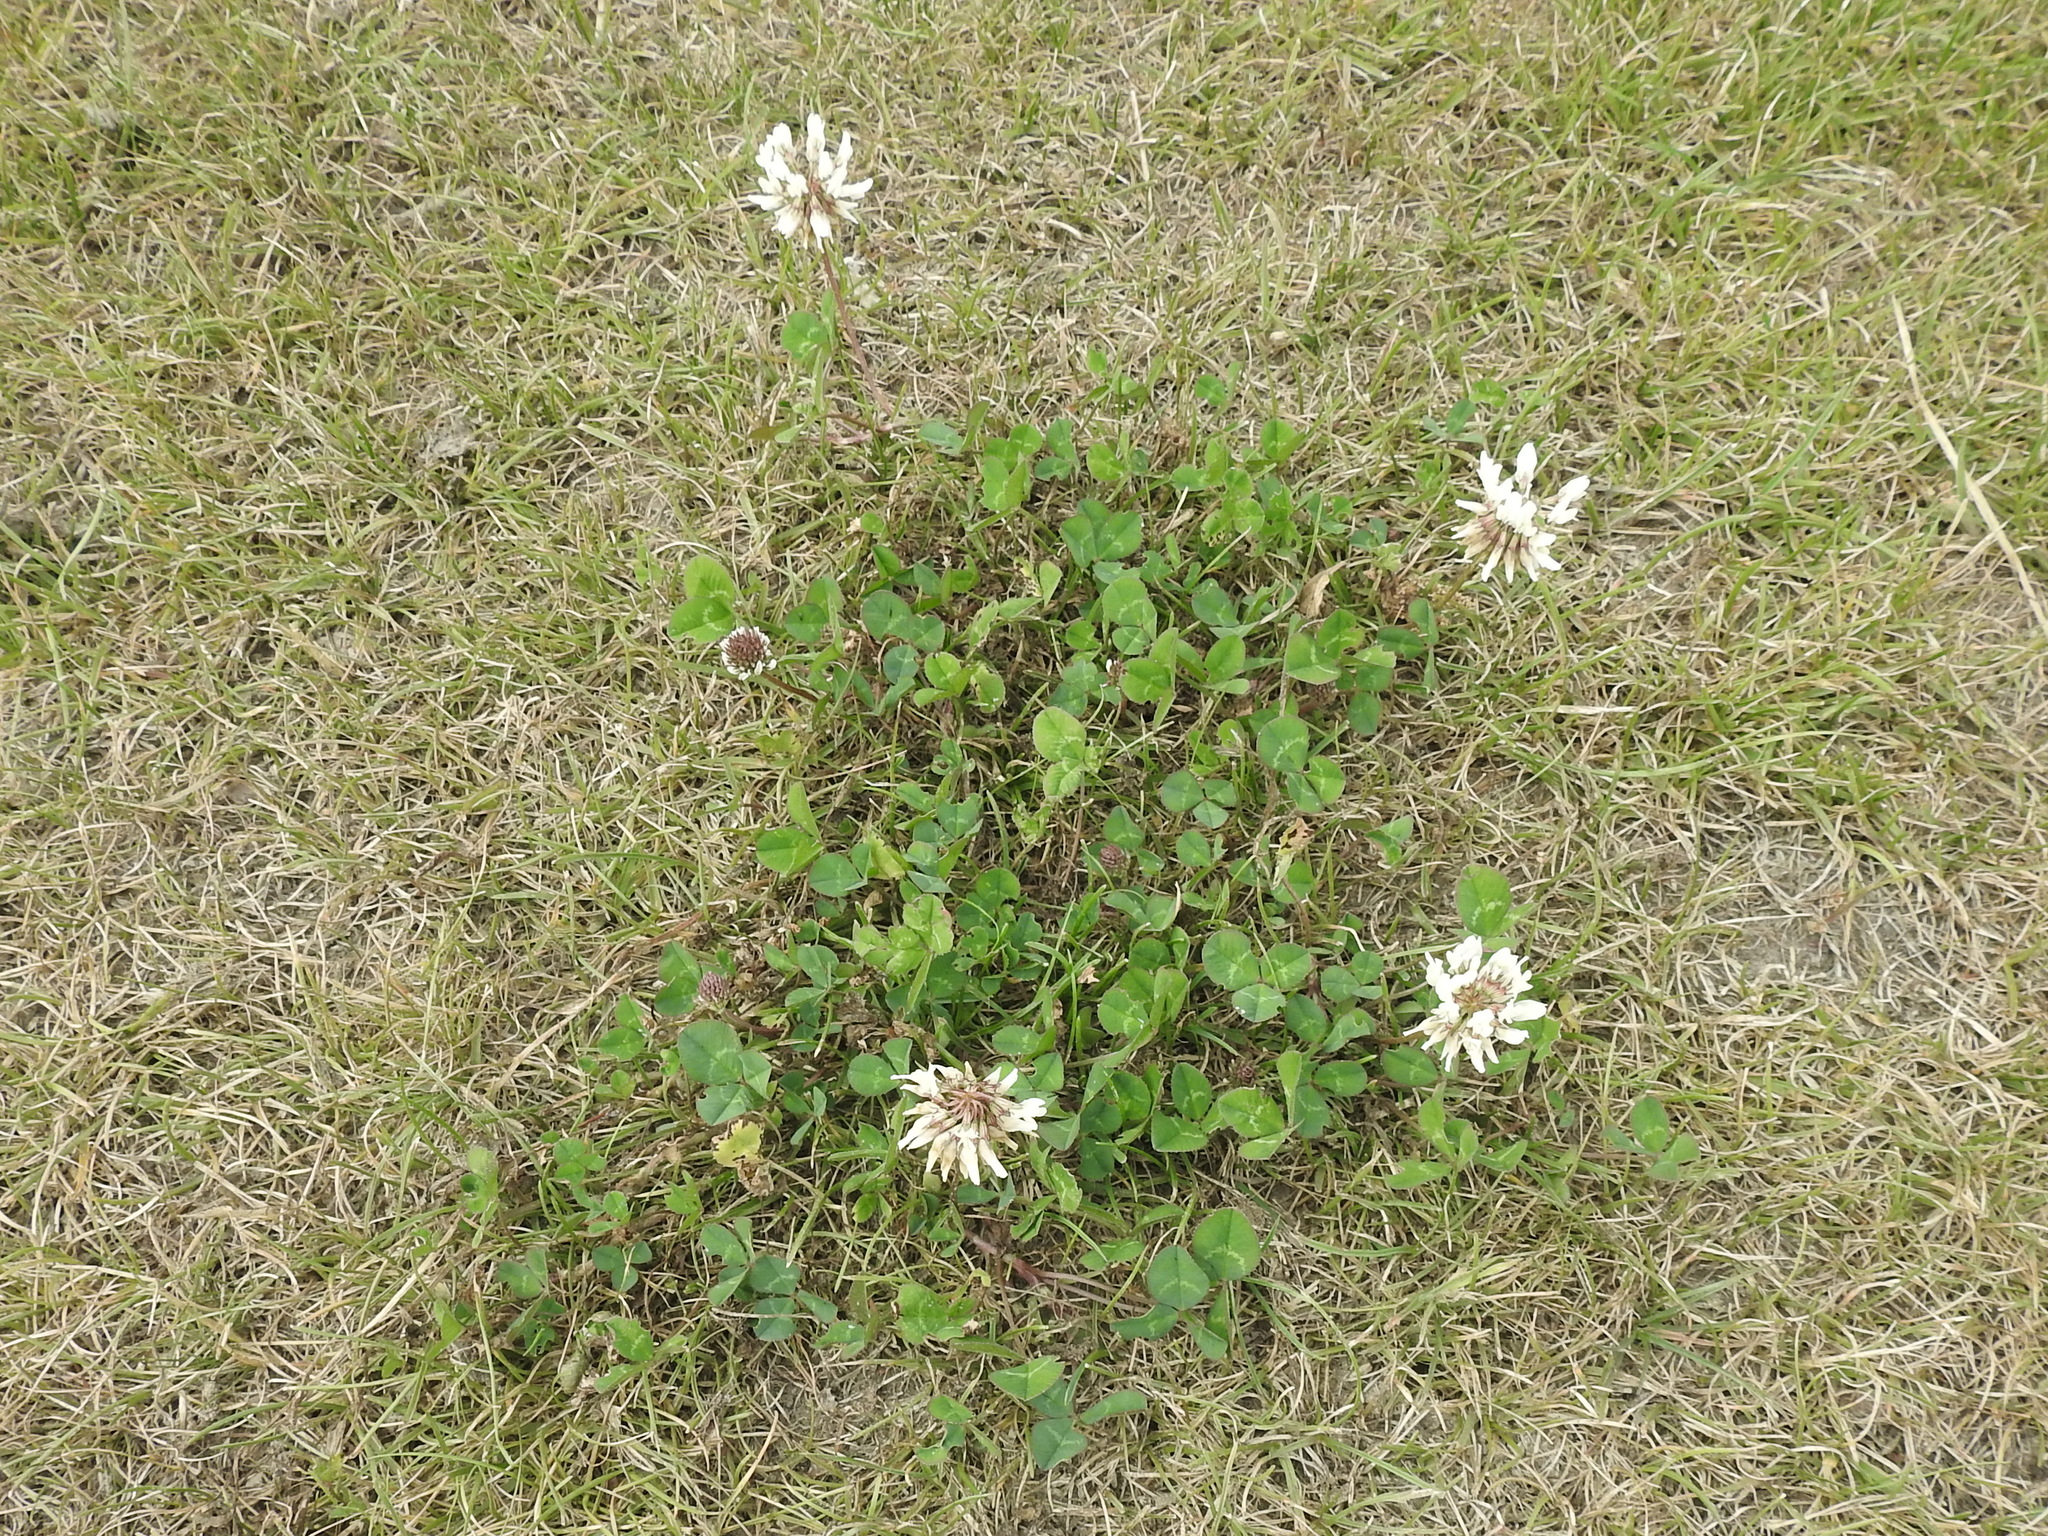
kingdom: Plantae
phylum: Tracheophyta
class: Magnoliopsida
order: Fabales
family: Fabaceae
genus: Trifolium
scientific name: Trifolium repens
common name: White clover
